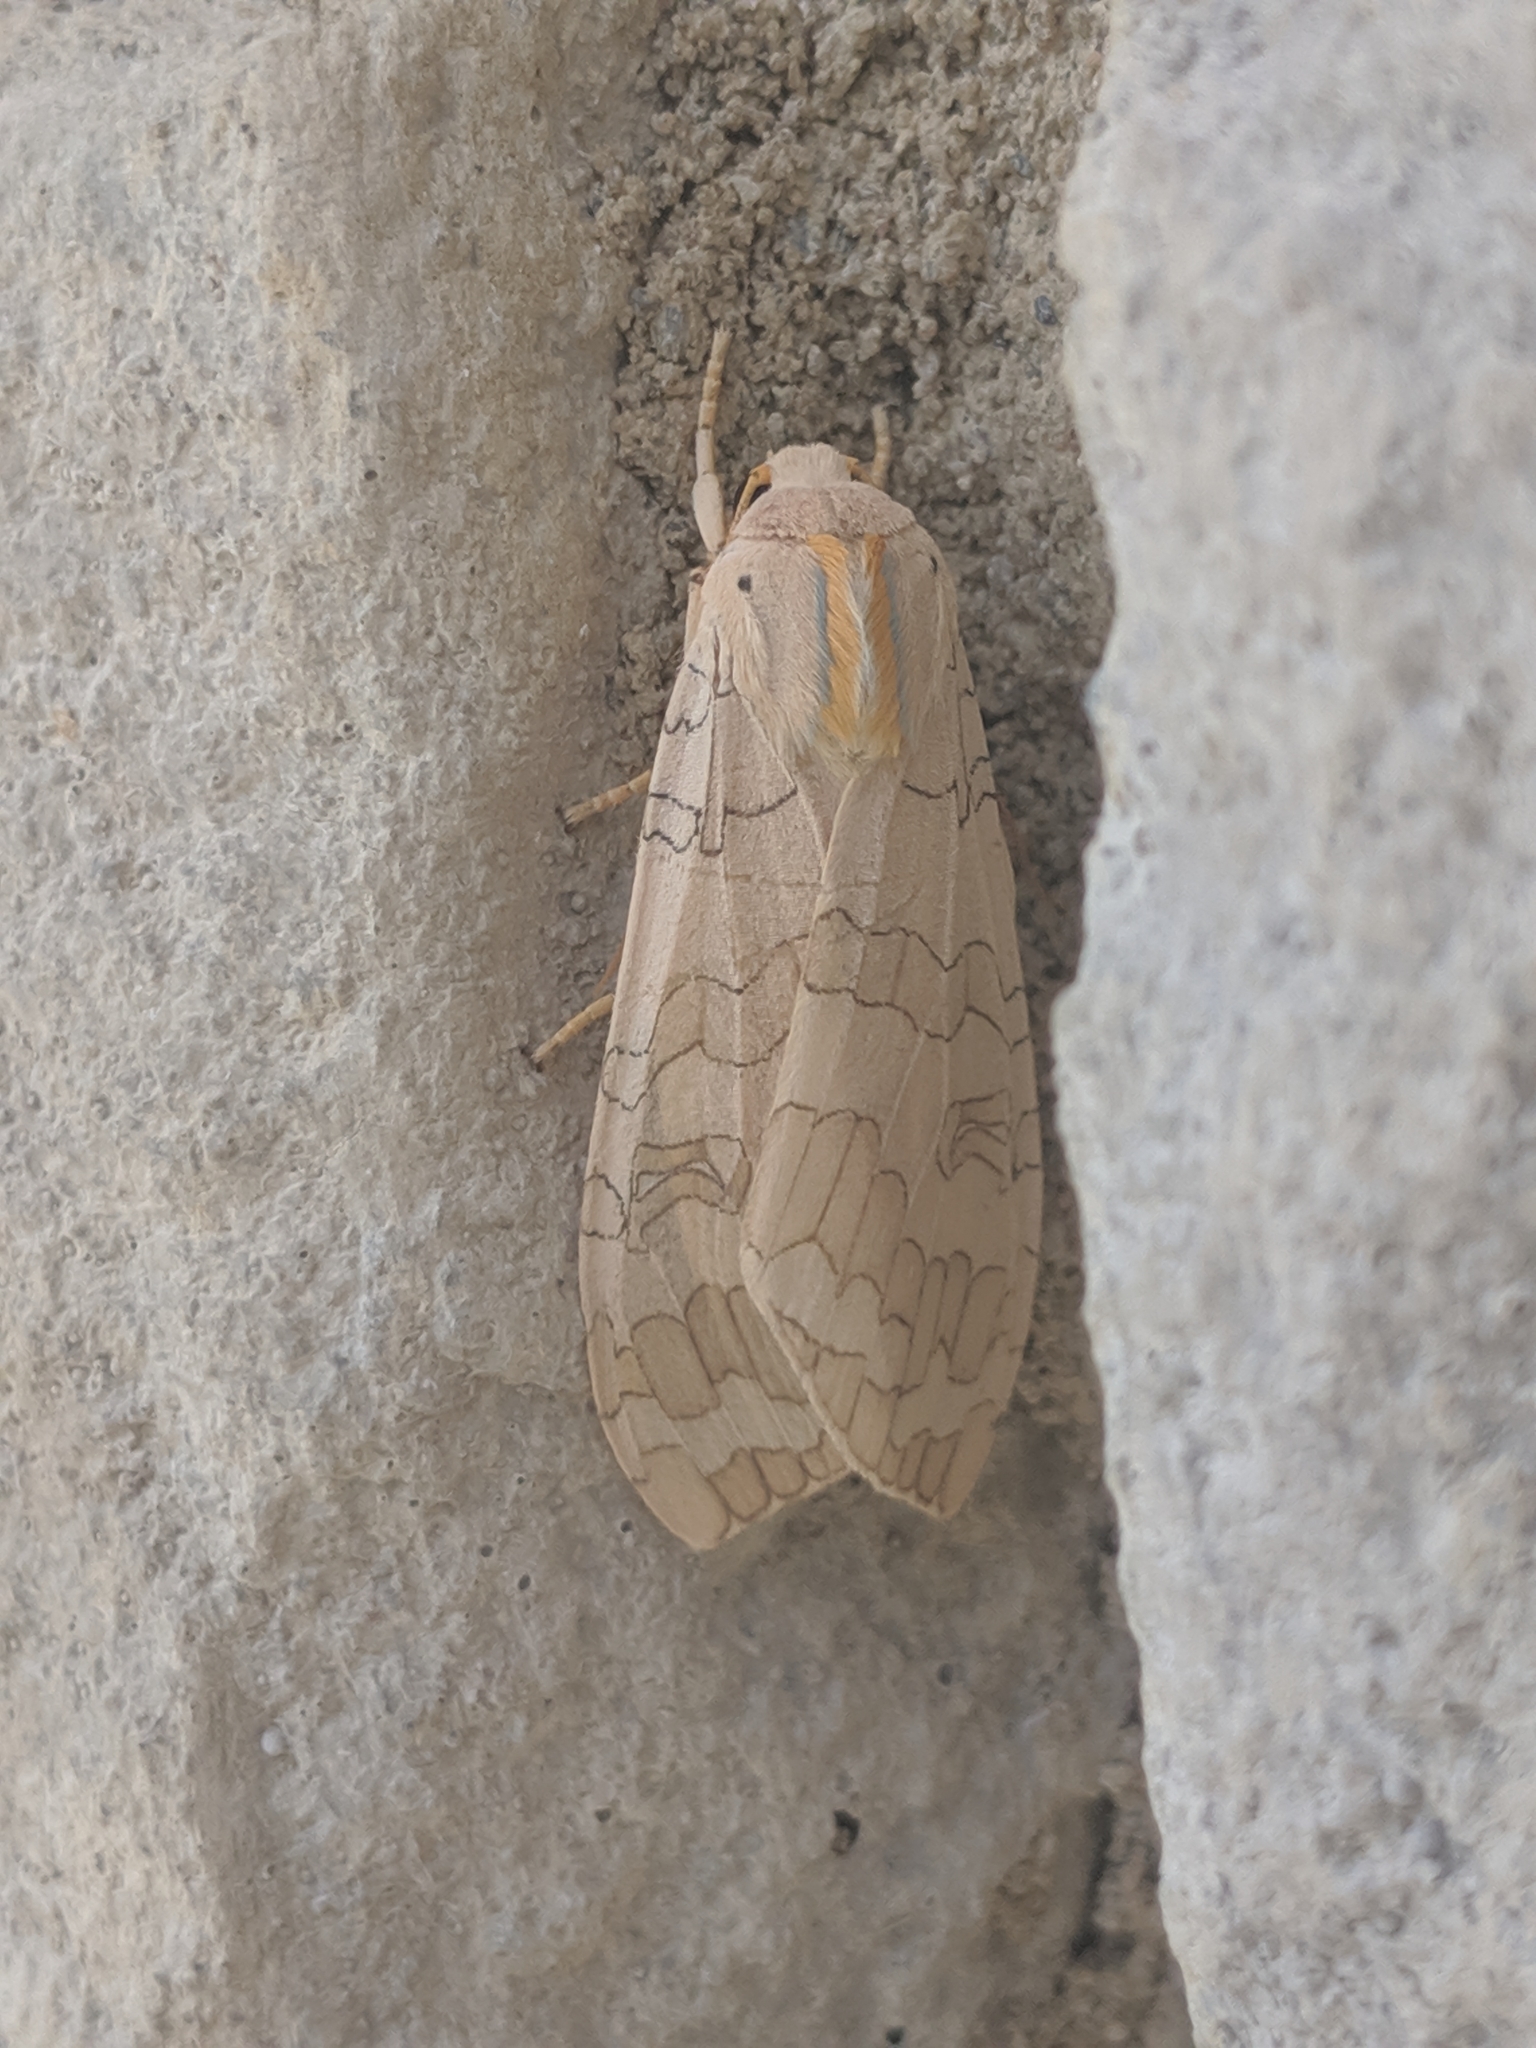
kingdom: Animalia
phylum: Arthropoda
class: Insecta
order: Lepidoptera
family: Erebidae
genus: Halysidota
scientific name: Halysidota
